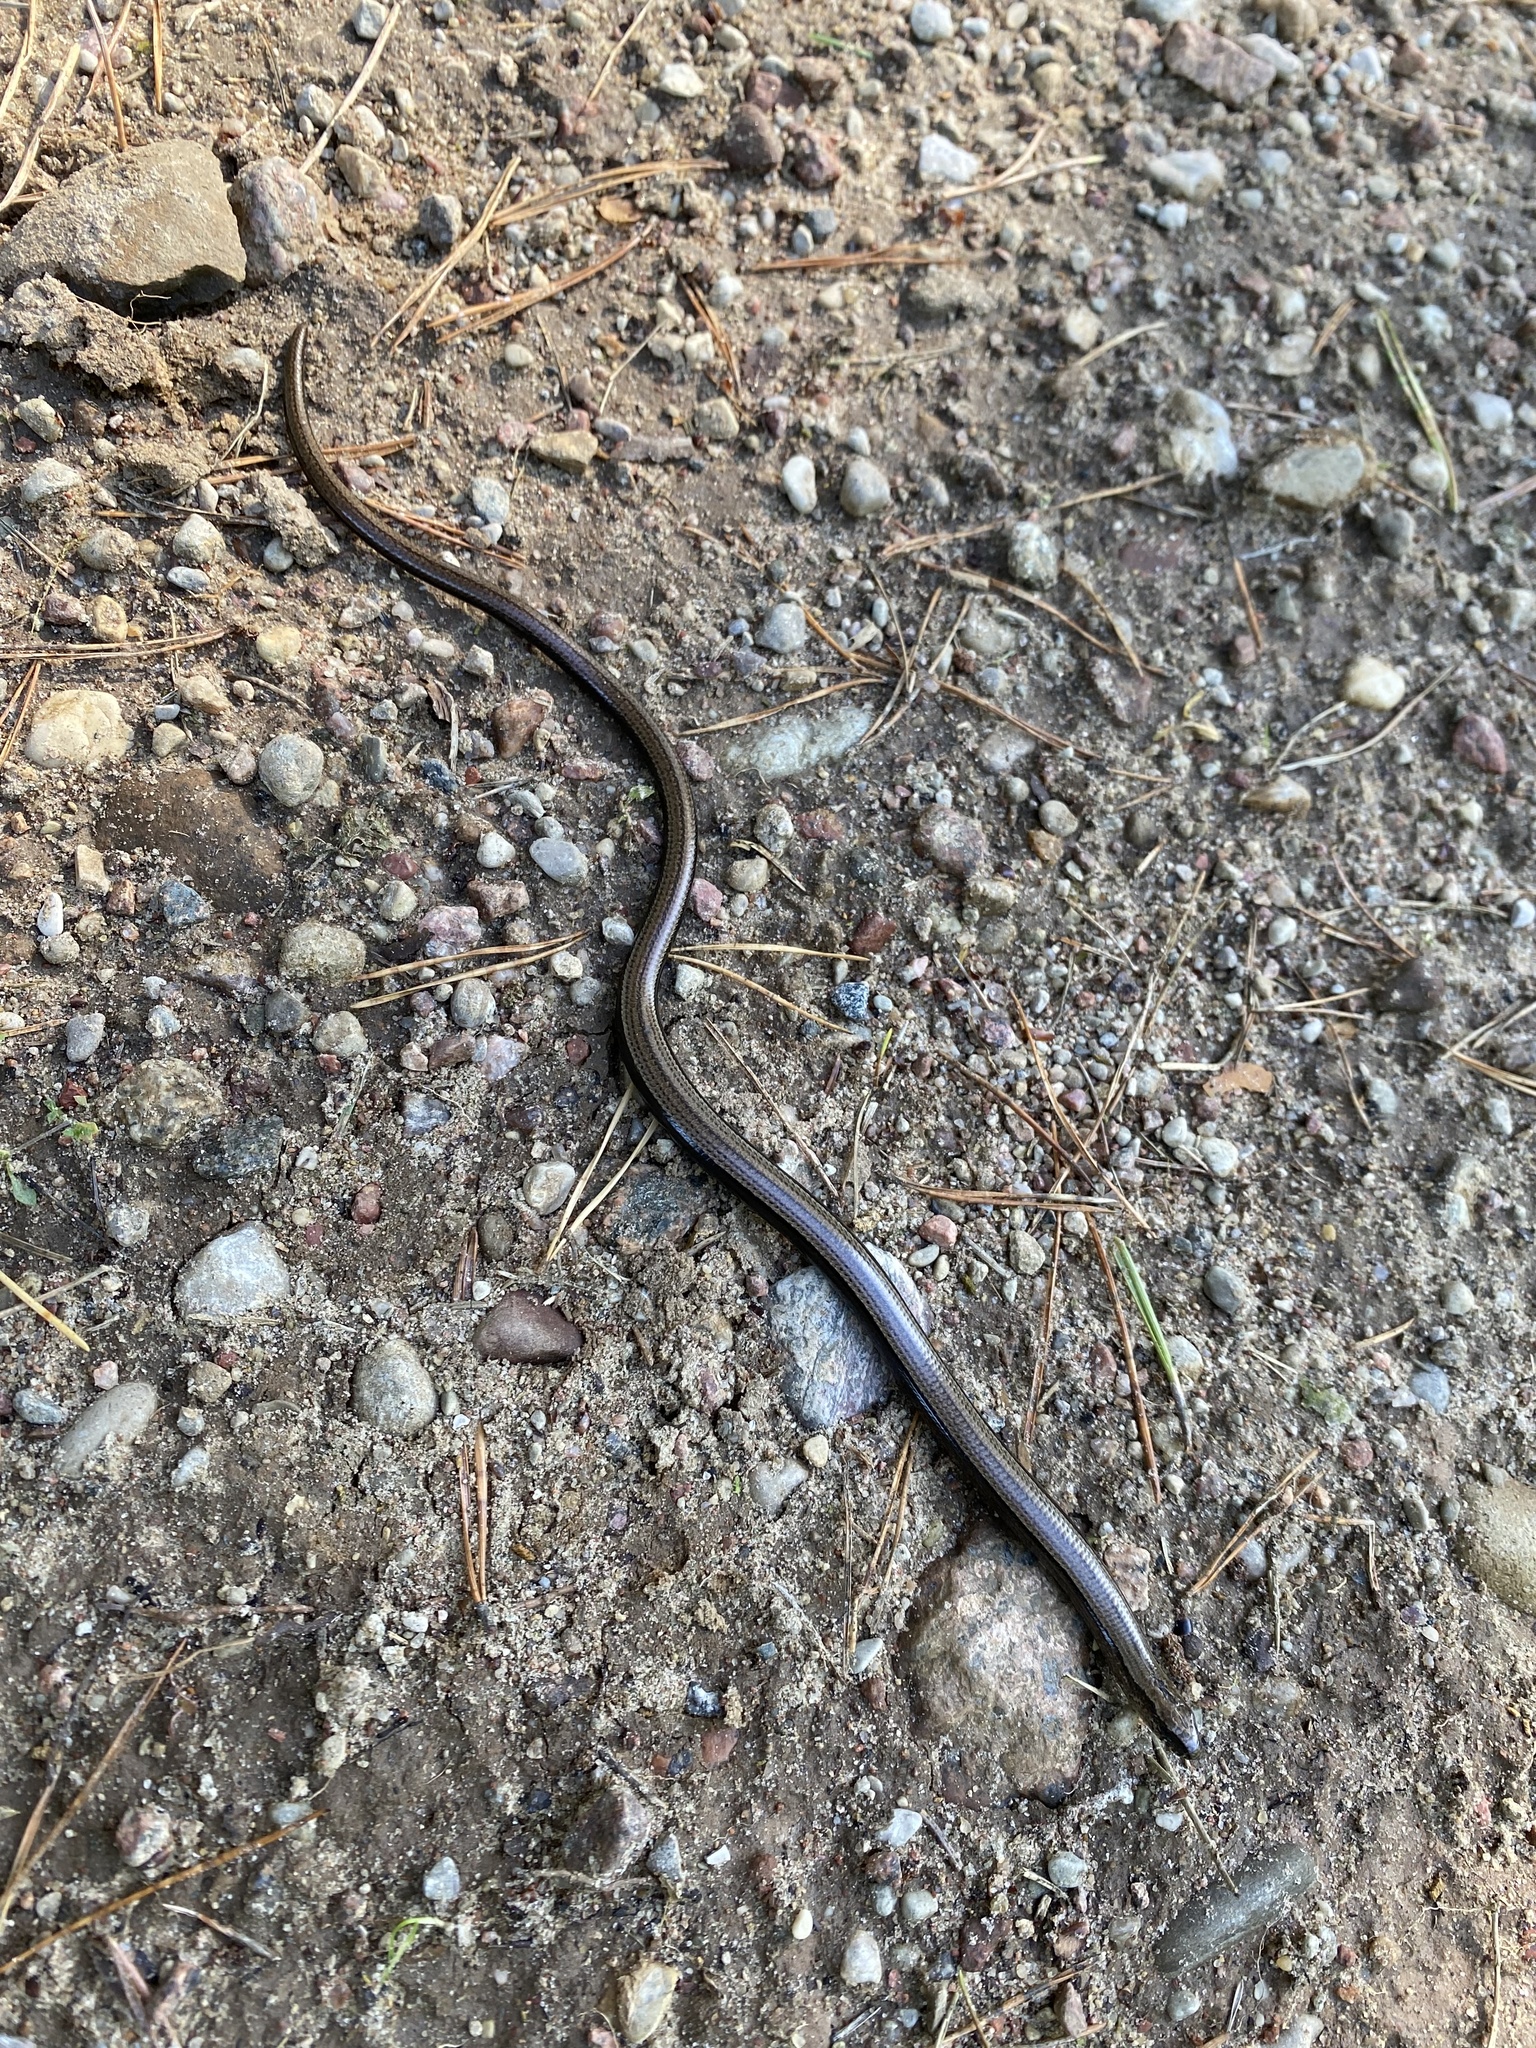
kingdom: Animalia
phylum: Chordata
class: Squamata
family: Anguidae
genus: Anguis
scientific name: Anguis fragilis
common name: Slow worm
